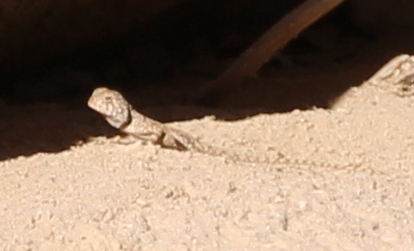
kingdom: Animalia
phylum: Chordata
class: Squamata
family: Agamidae
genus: Pseudotrapelus
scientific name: Pseudotrapelus sinaitus
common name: Sinai agama
